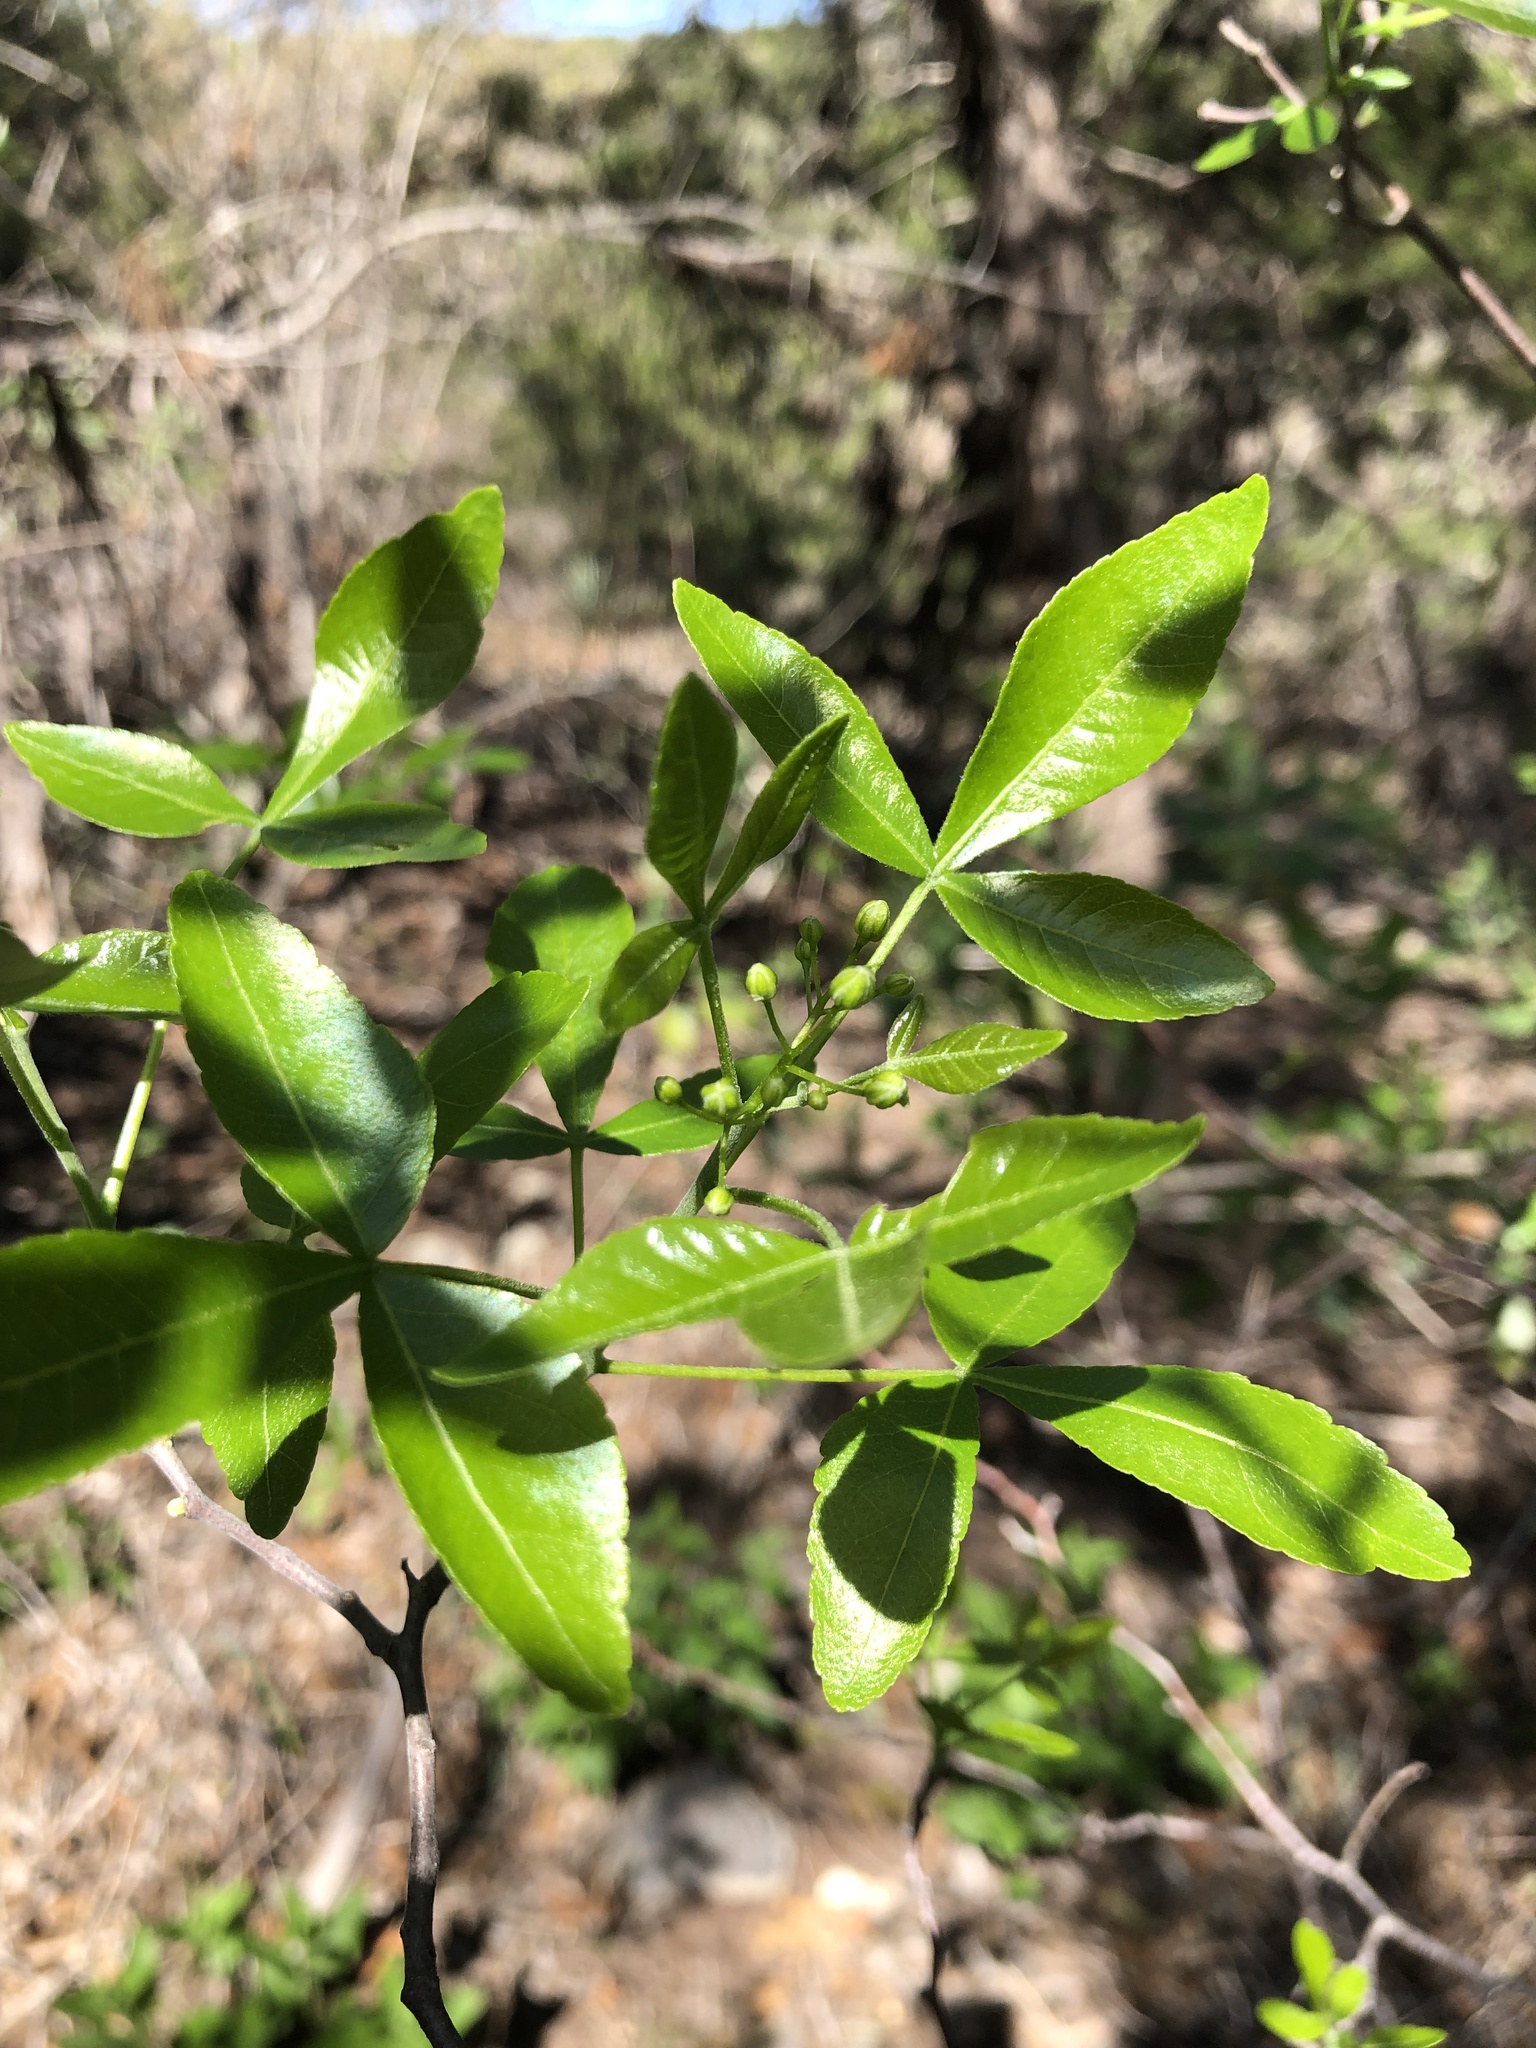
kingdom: Plantae
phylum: Tracheophyta
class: Magnoliopsida
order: Sapindales
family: Rutaceae
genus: Ptelea
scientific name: Ptelea trifoliata
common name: Common hop-tree
